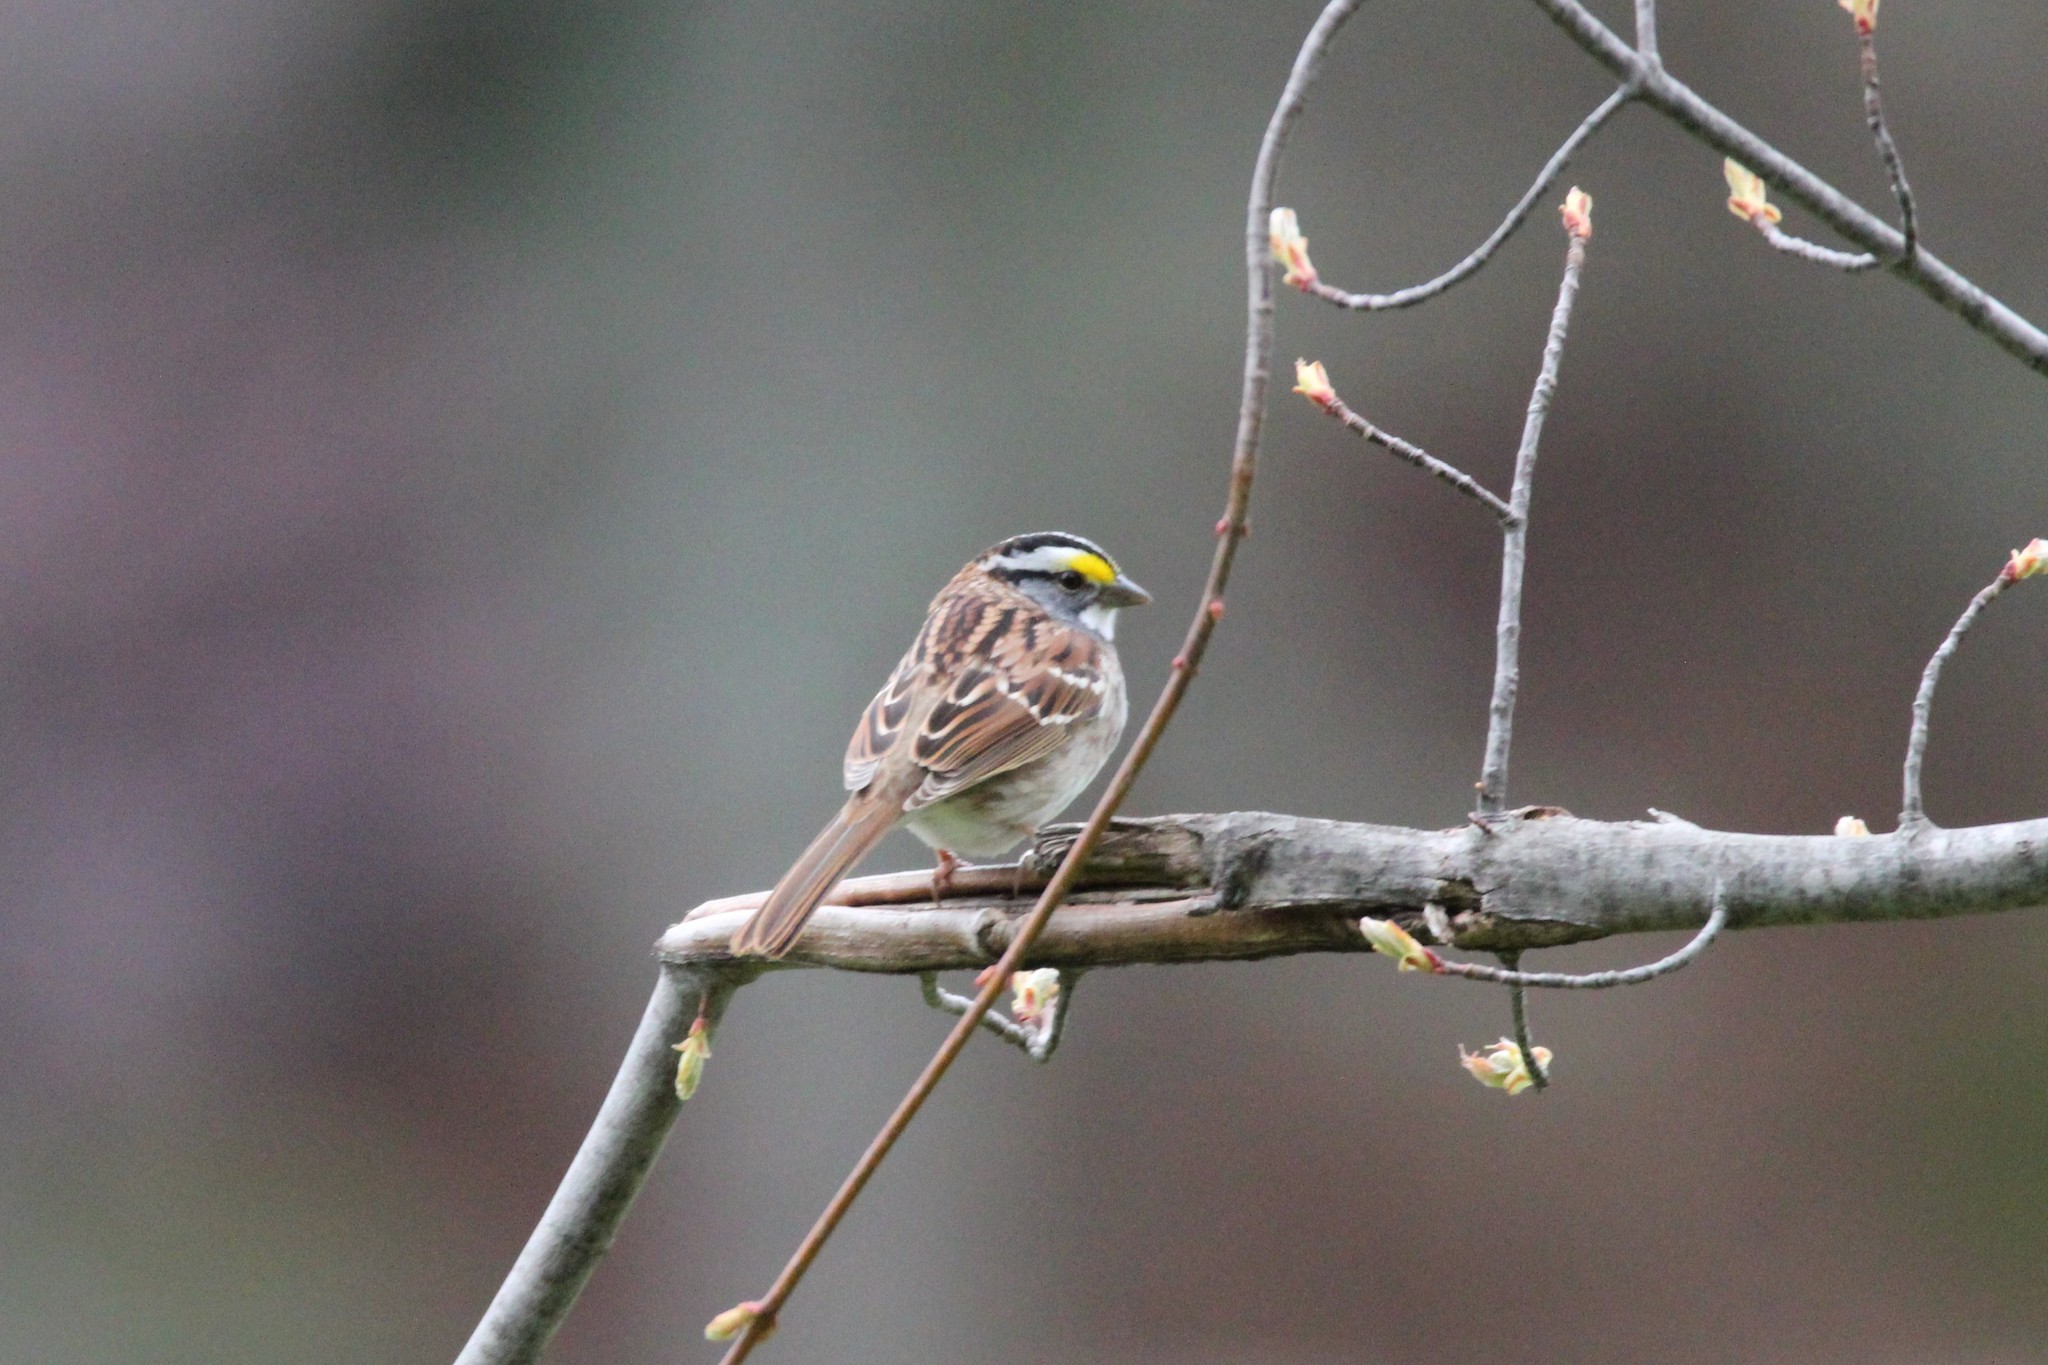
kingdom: Animalia
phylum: Chordata
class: Aves
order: Passeriformes
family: Passerellidae
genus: Zonotrichia
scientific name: Zonotrichia albicollis
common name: White-throated sparrow
